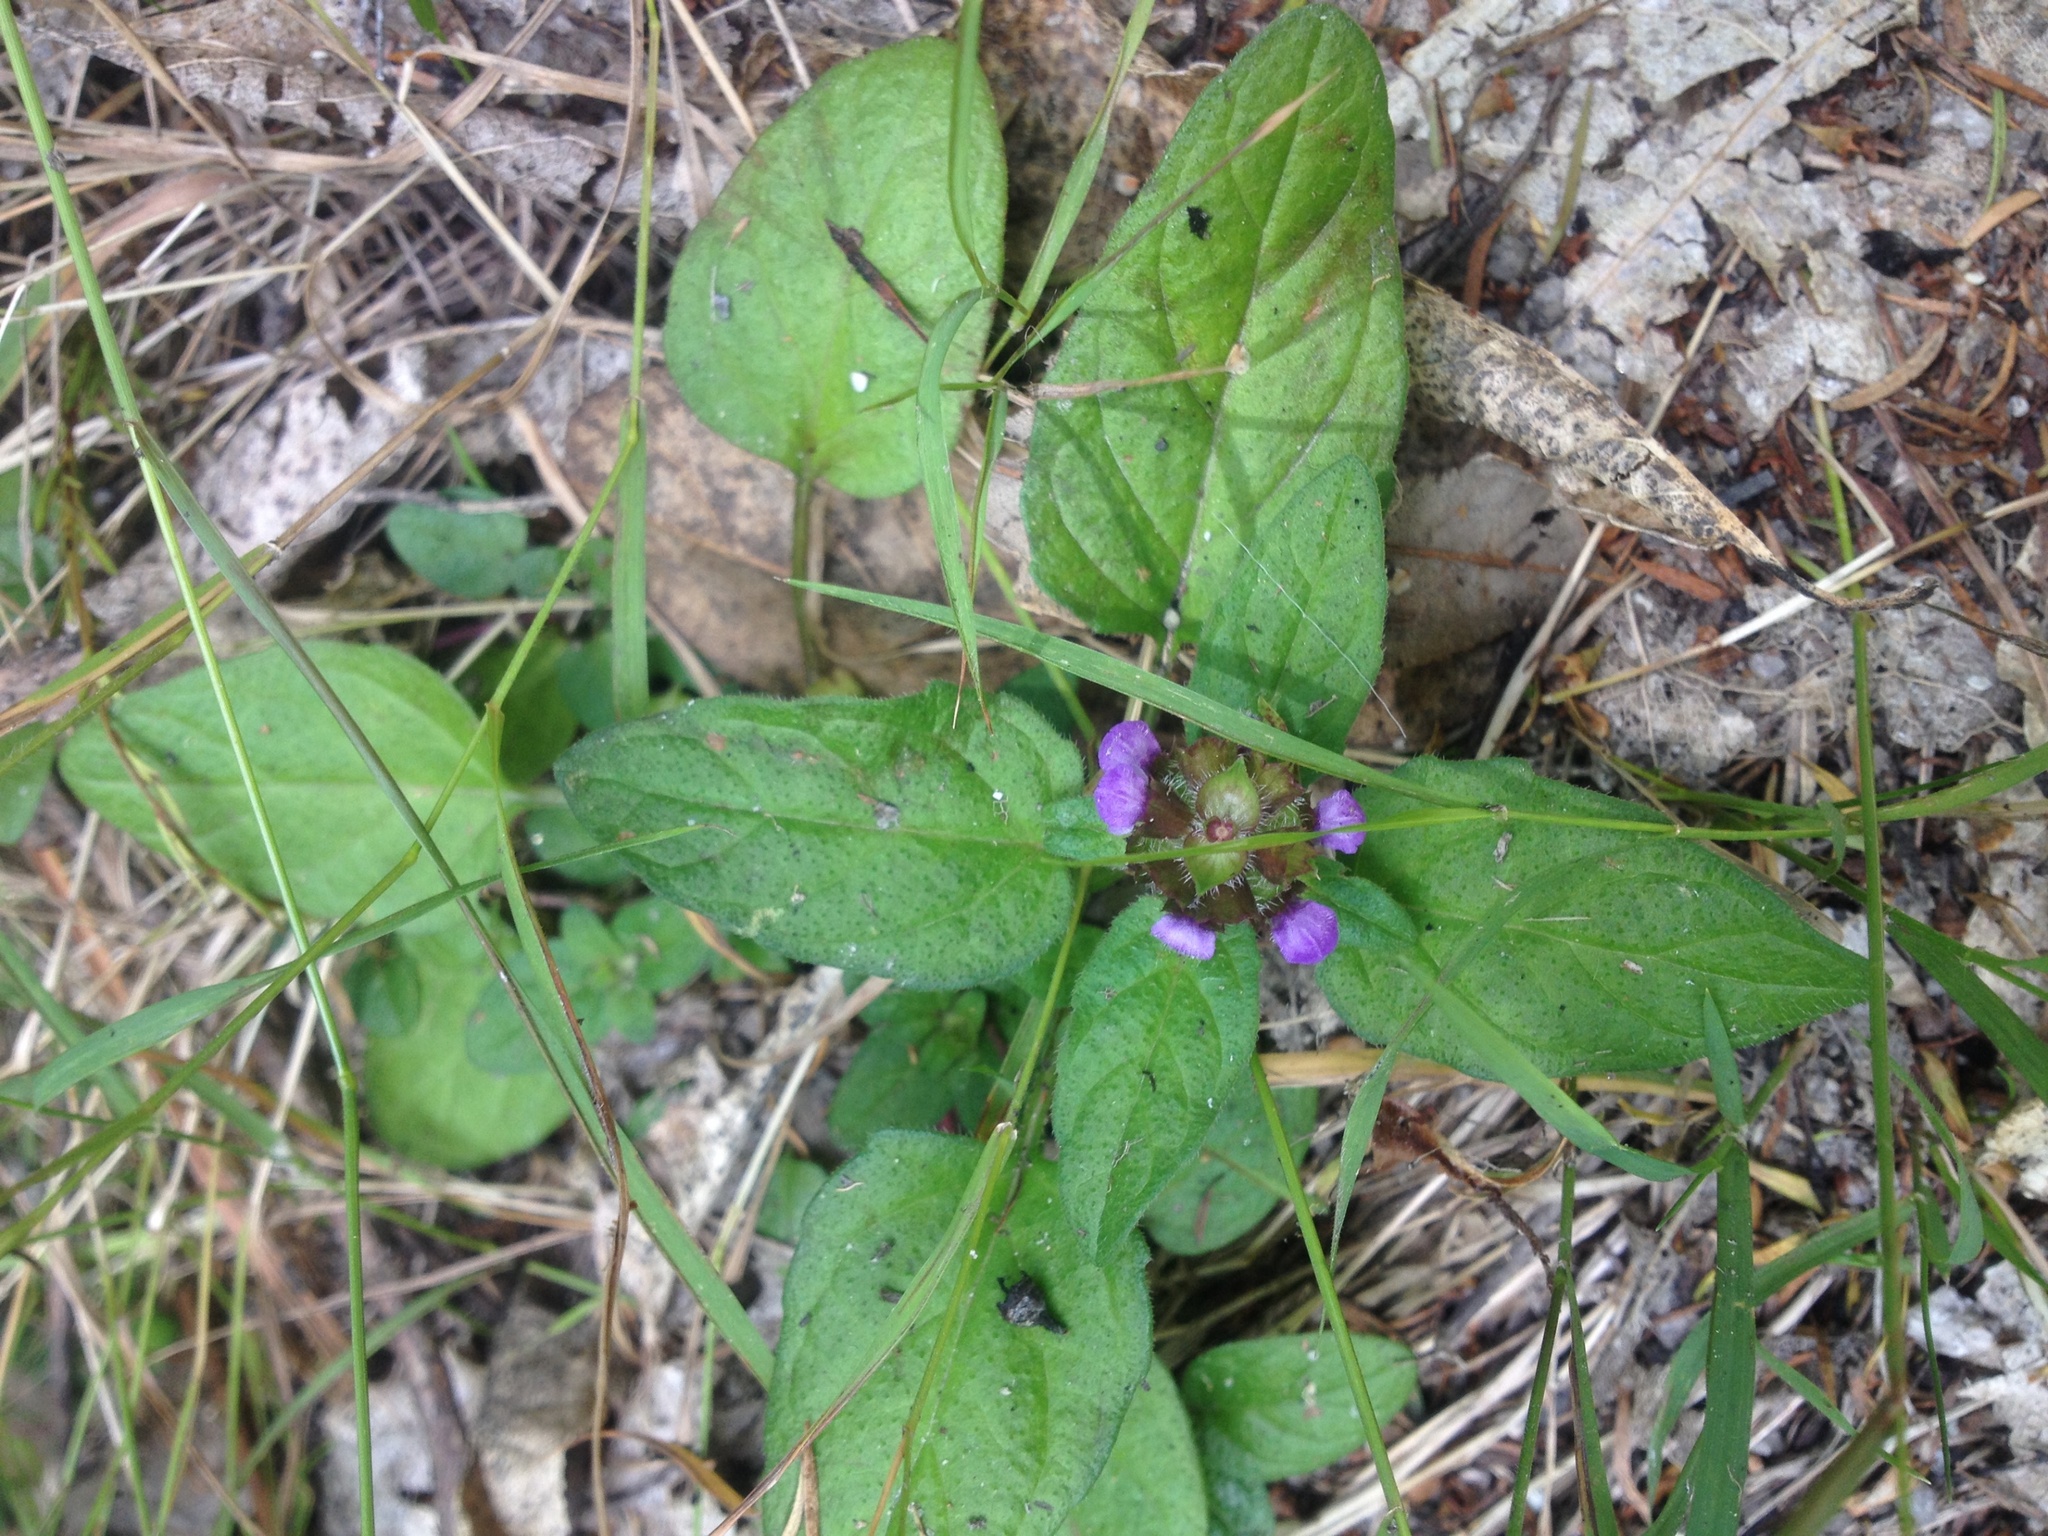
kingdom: Plantae
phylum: Tracheophyta
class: Magnoliopsida
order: Lamiales
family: Lamiaceae
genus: Prunella
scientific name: Prunella vulgaris
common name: Heal-all
